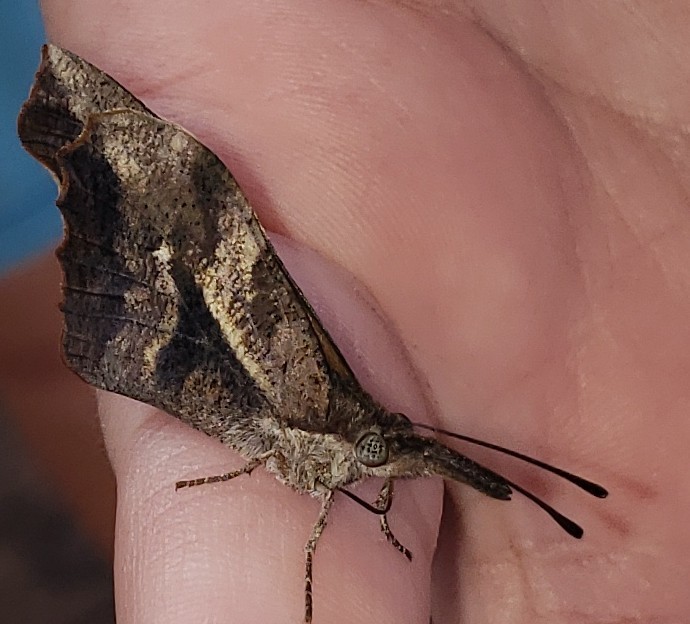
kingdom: Animalia
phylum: Arthropoda
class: Insecta
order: Lepidoptera
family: Nymphalidae
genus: Libytheana
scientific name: Libytheana carinenta
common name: American snout
